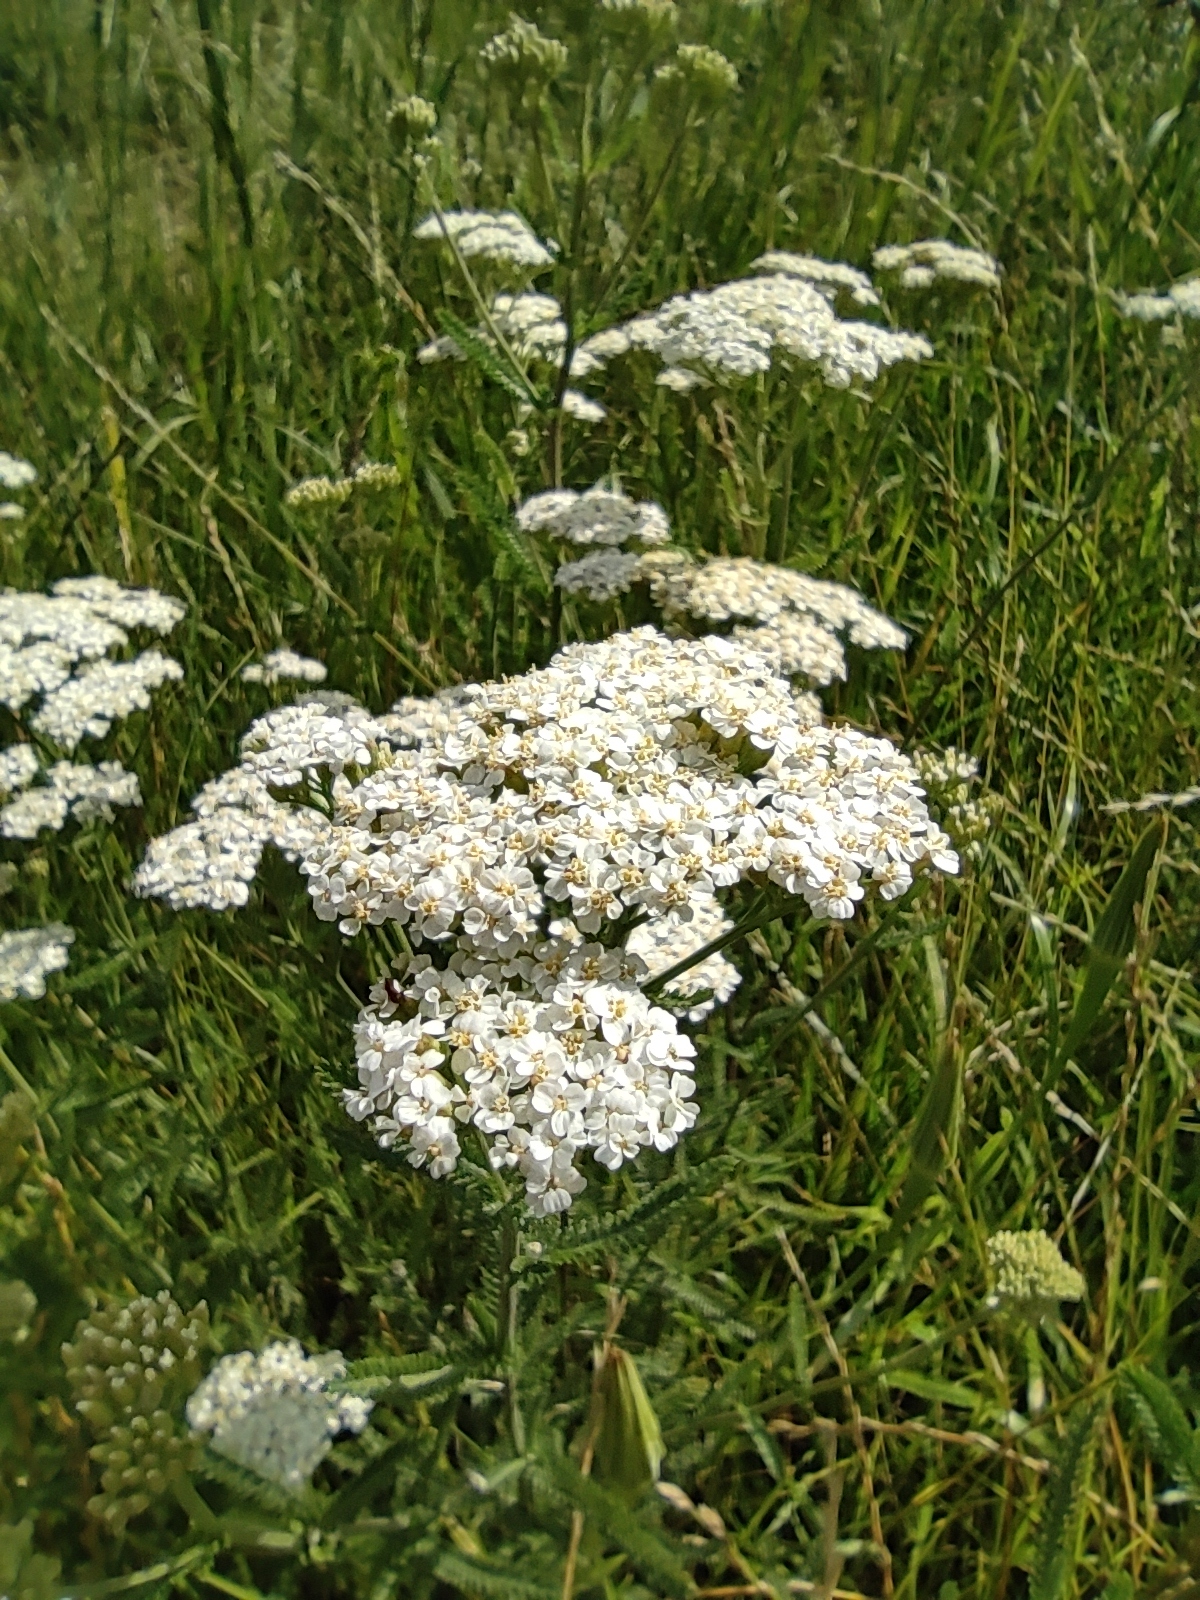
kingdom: Plantae
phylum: Tracheophyta
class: Magnoliopsida
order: Asterales
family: Asteraceae
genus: Achillea
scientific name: Achillea millefolium
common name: Yarrow
